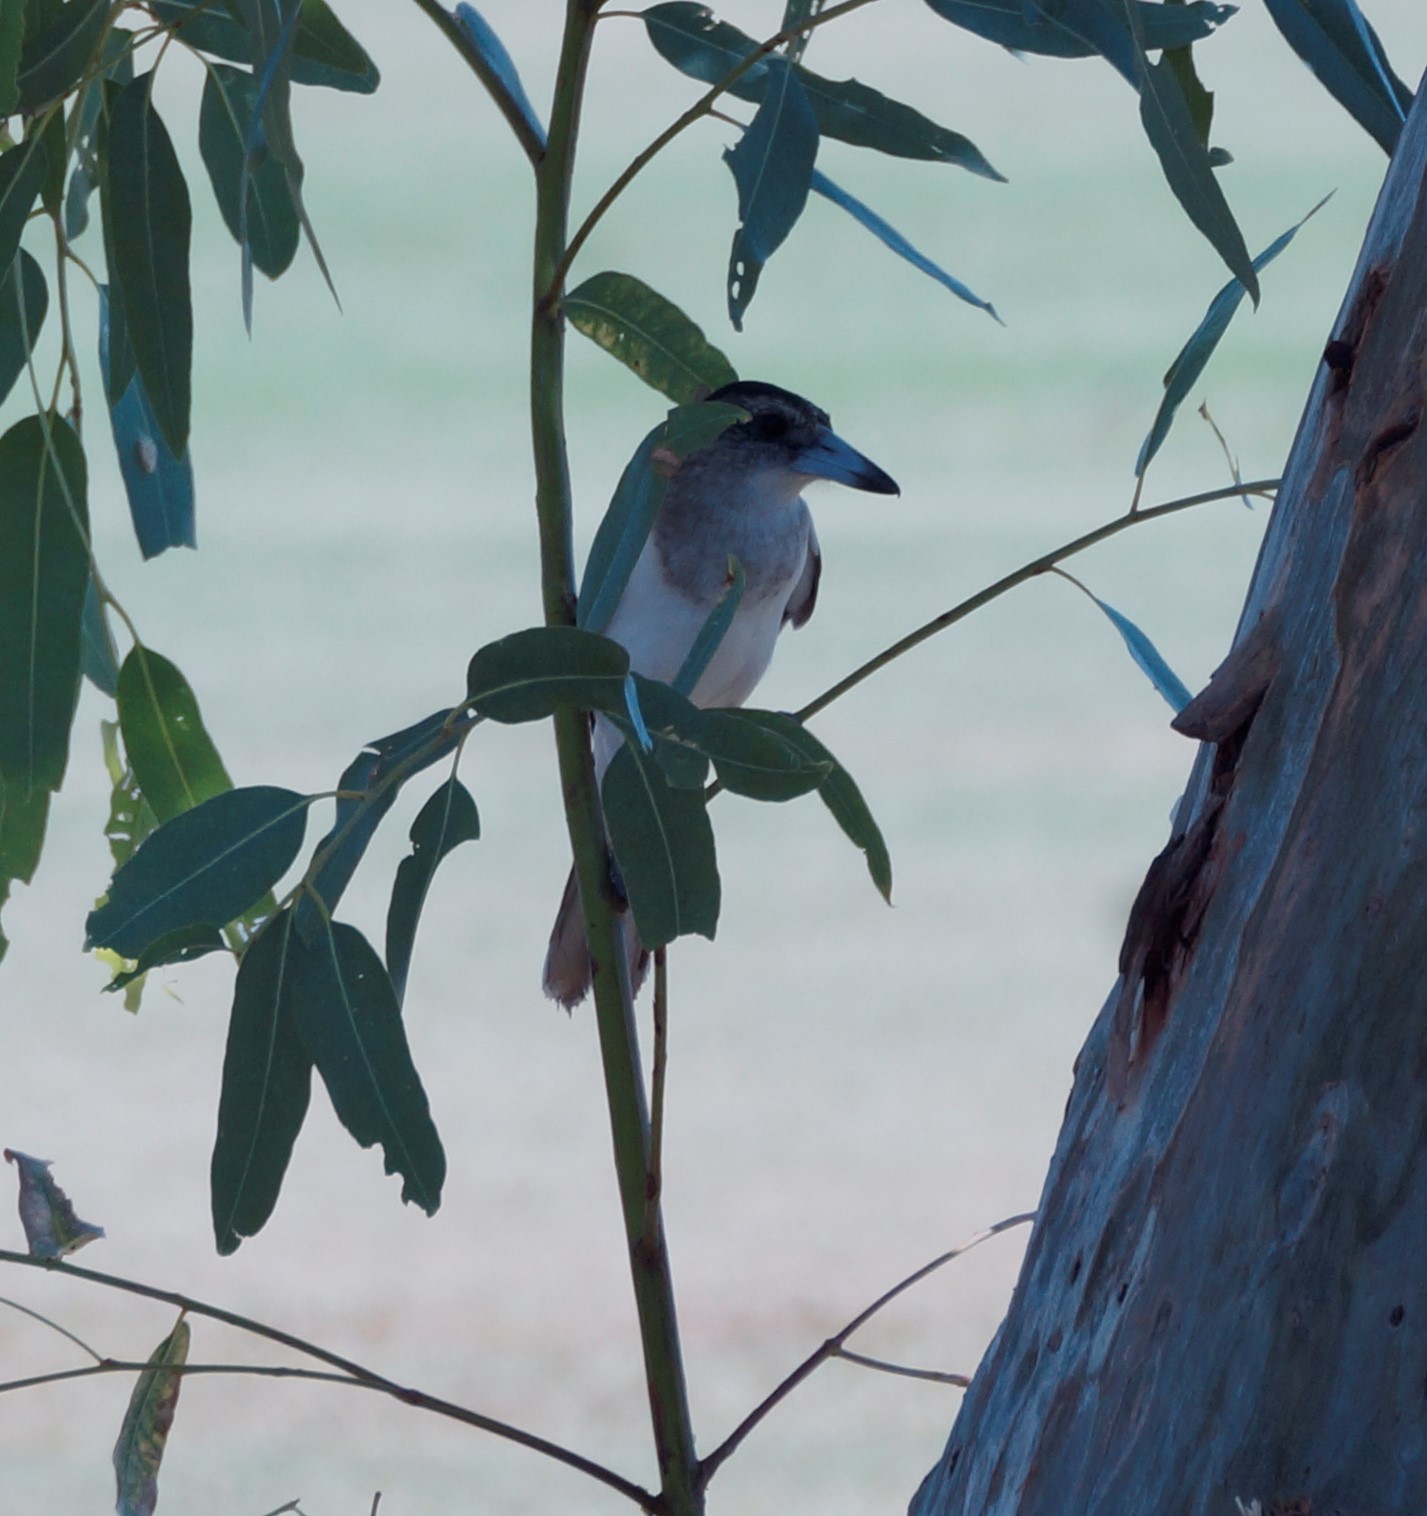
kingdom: Animalia
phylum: Chordata
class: Aves
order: Passeriformes
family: Cracticidae
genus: Cracticus
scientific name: Cracticus nigrogularis
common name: Pied butcherbird
